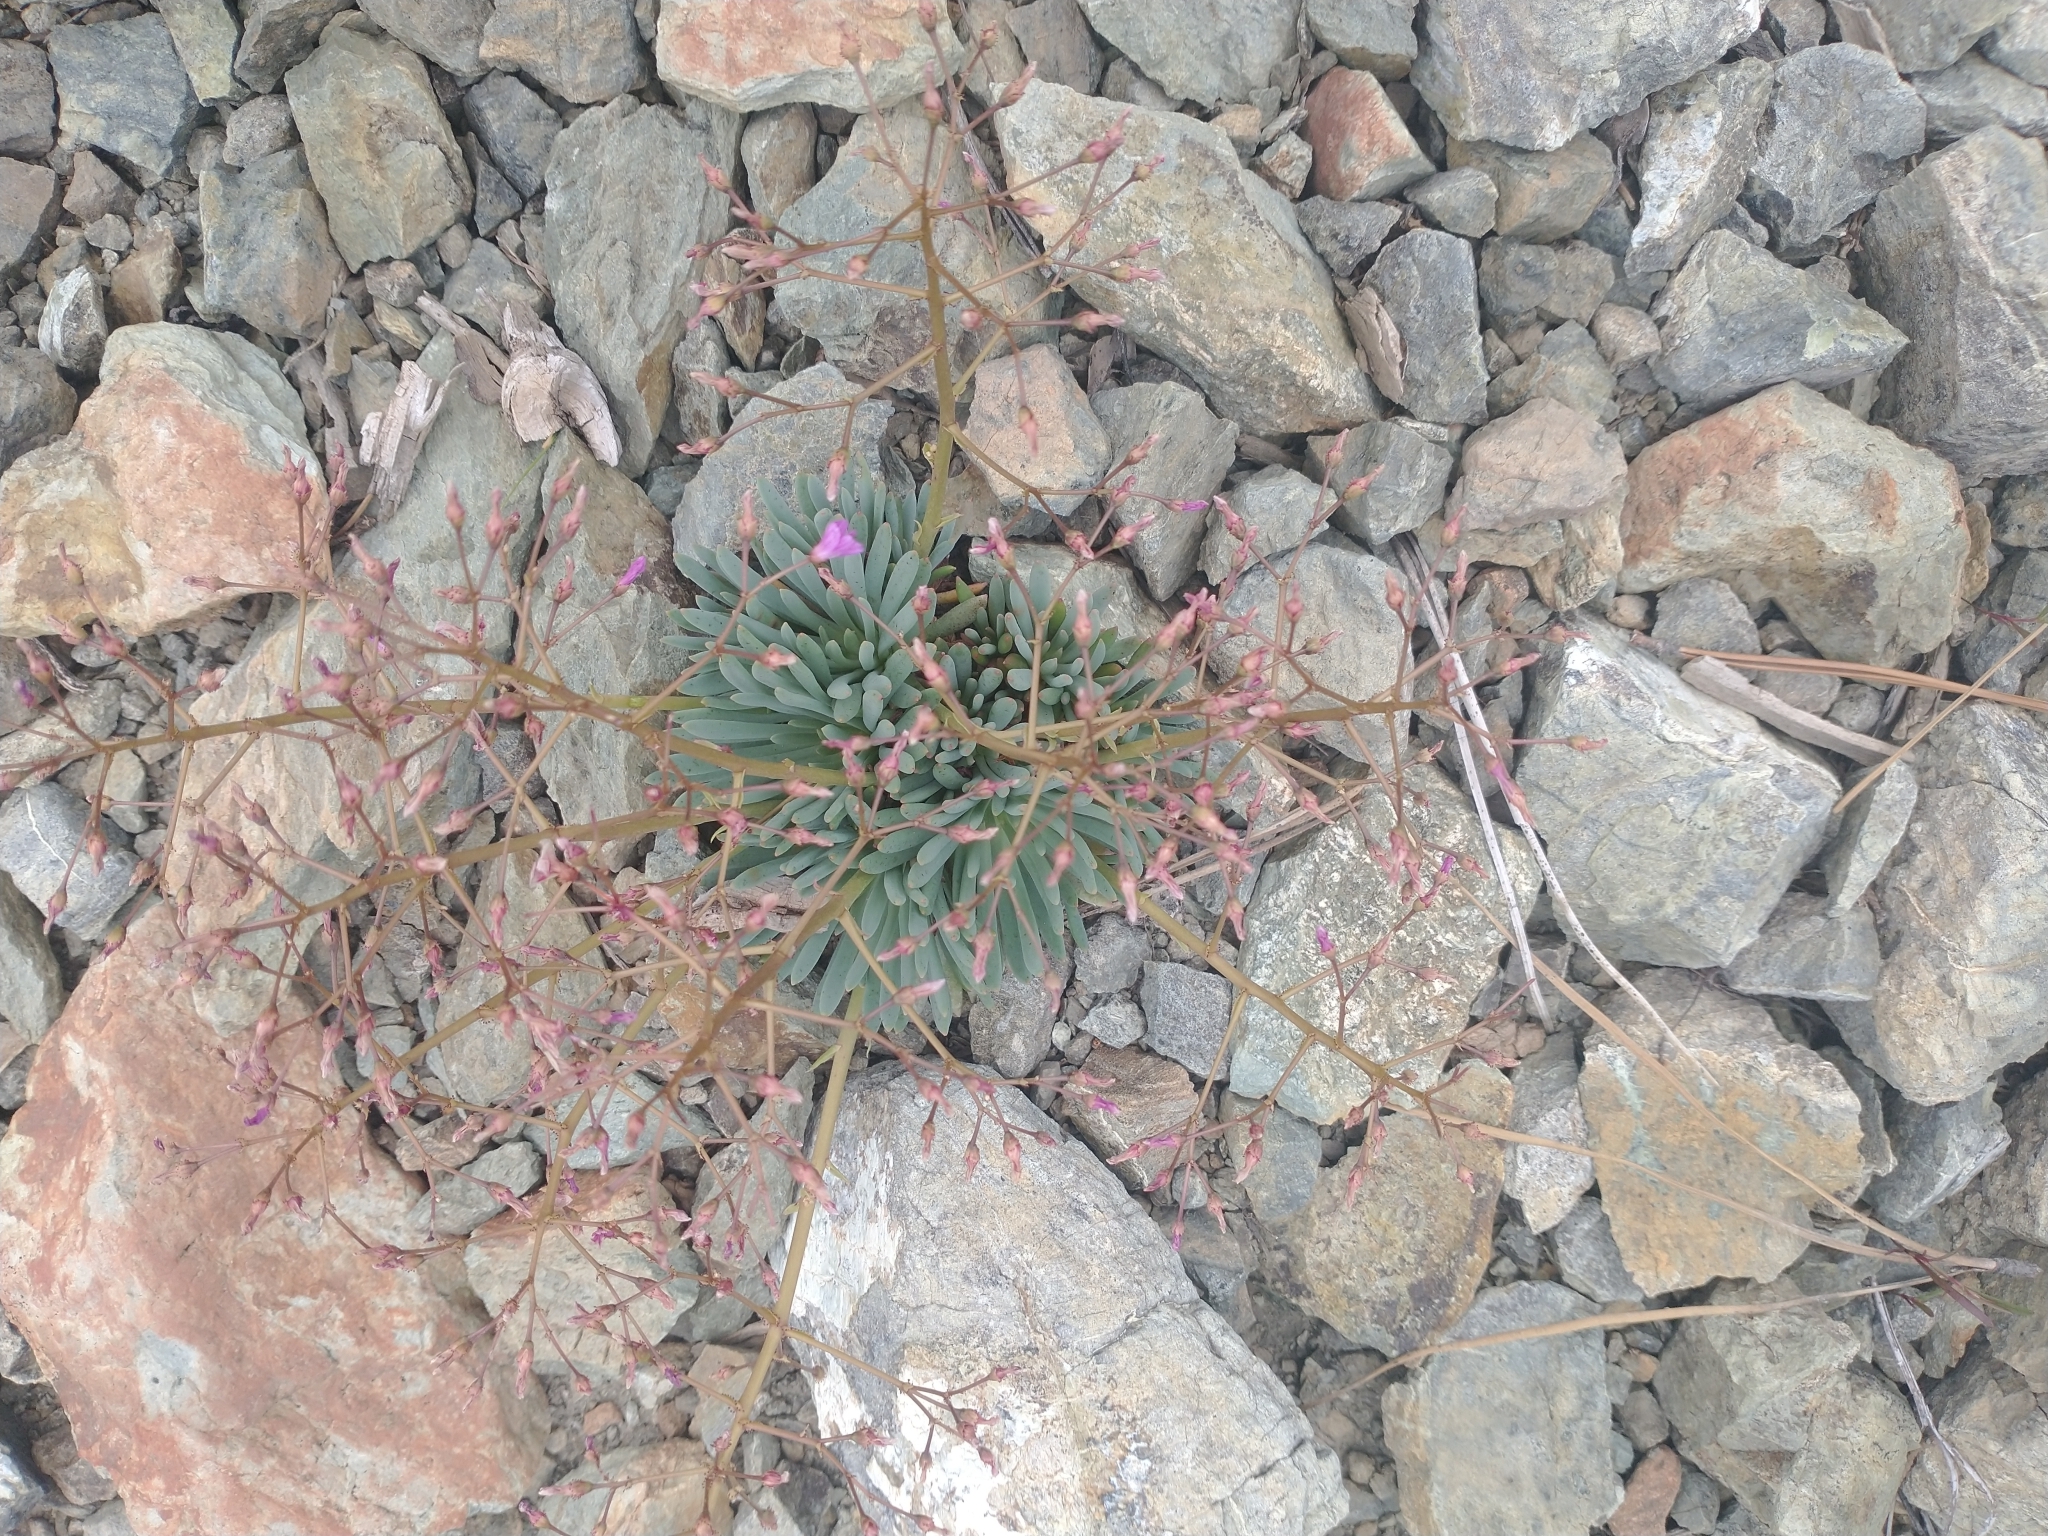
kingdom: Plantae
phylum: Tracheophyta
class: Magnoliopsida
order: Caryophyllales
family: Montiaceae
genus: Lewisia
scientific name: Lewisia leeana
